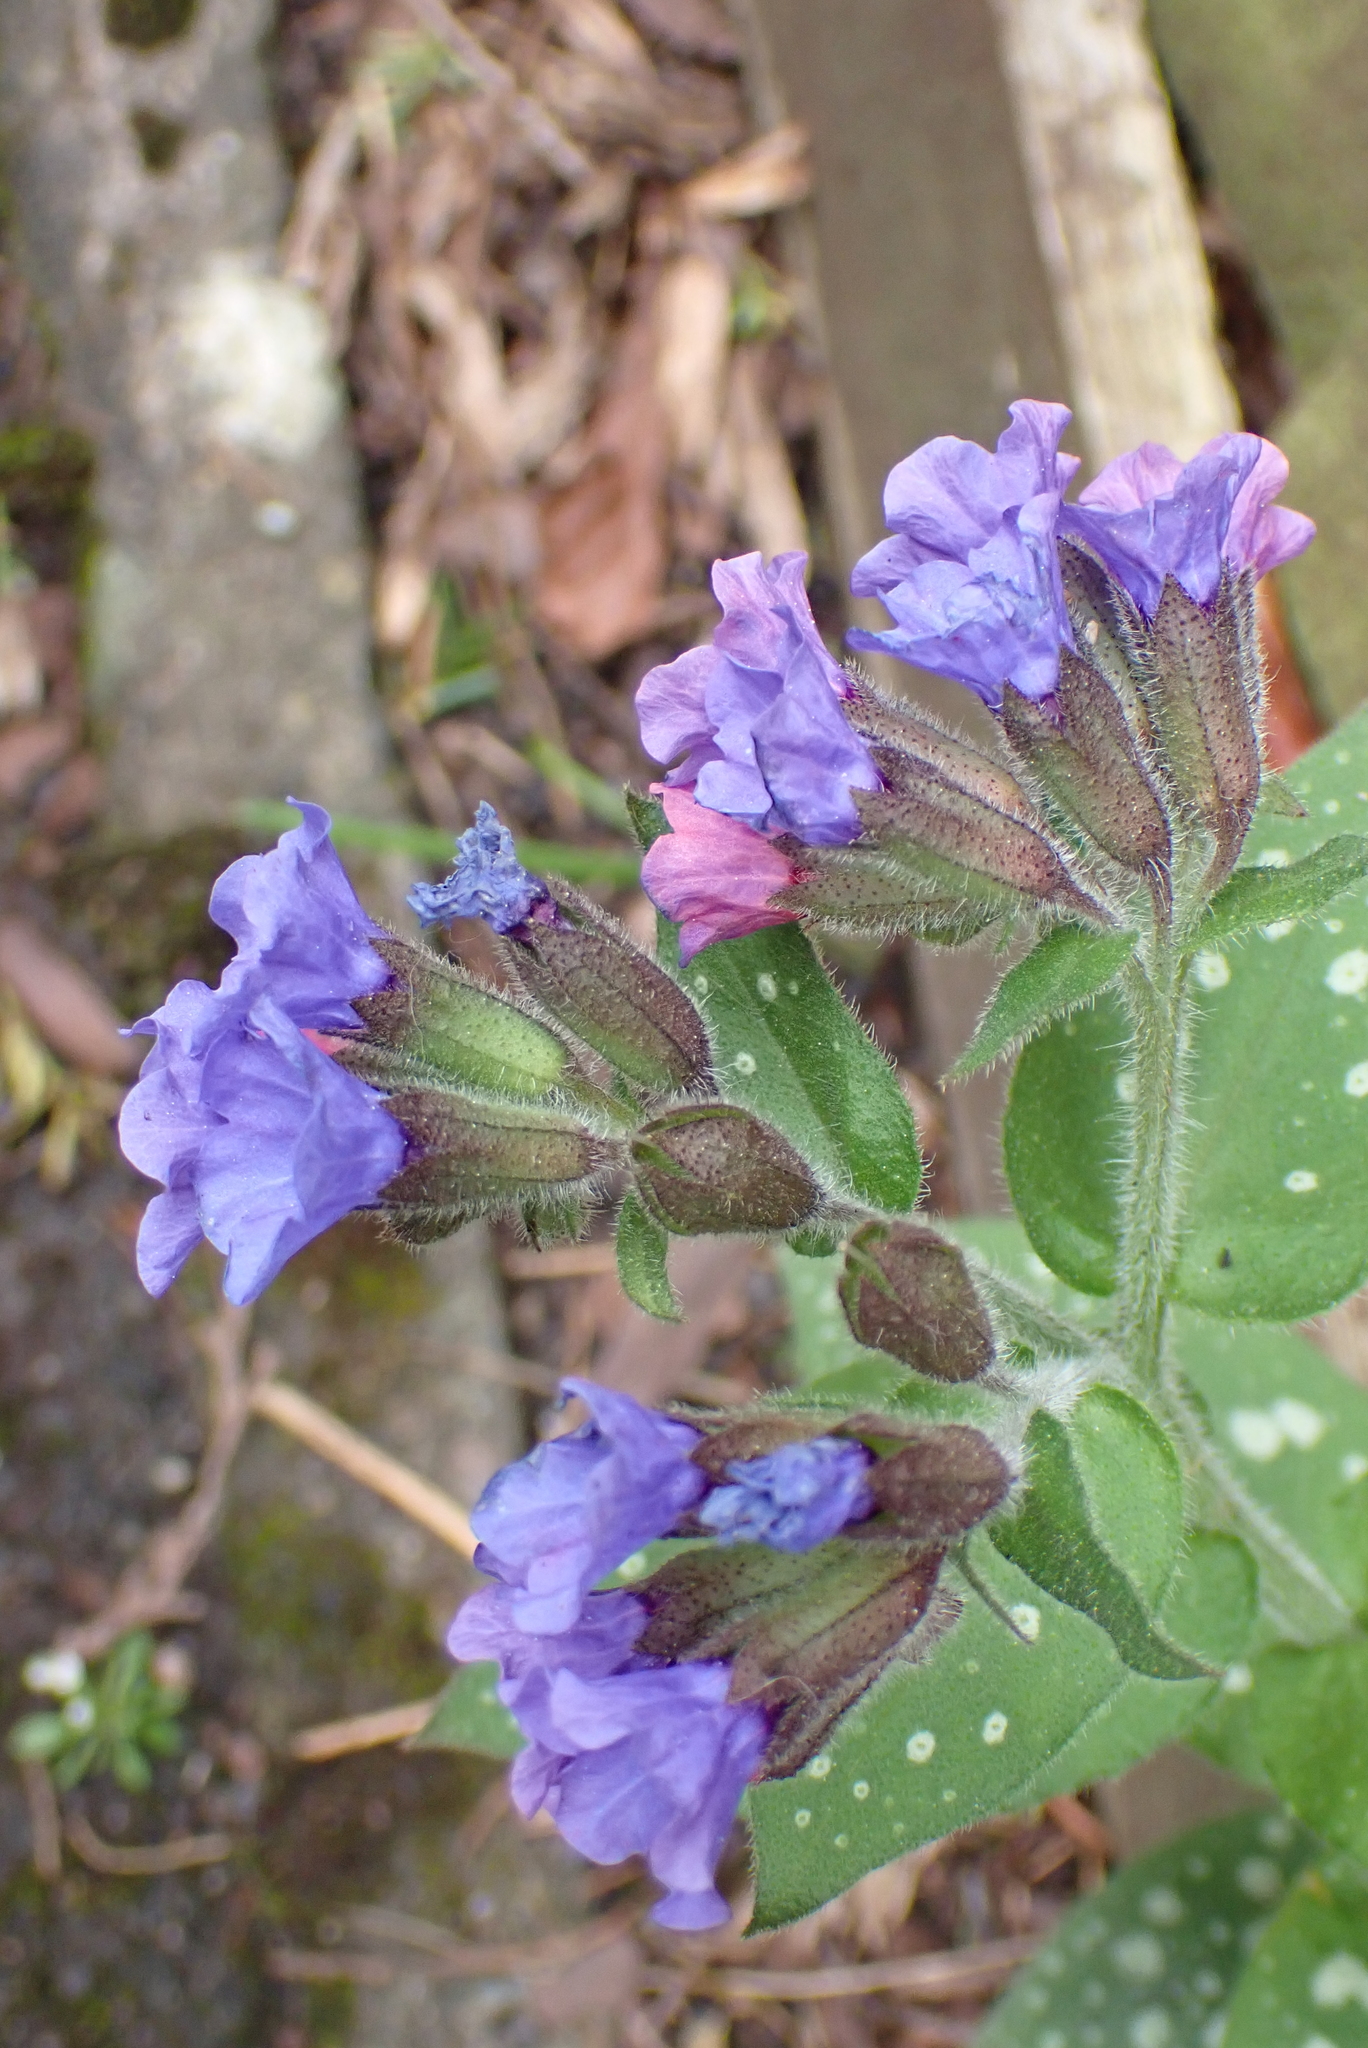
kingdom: Plantae
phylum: Tracheophyta
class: Magnoliopsida
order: Boraginales
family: Boraginaceae
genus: Pulmonaria
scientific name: Pulmonaria officinalis
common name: Lungwort
